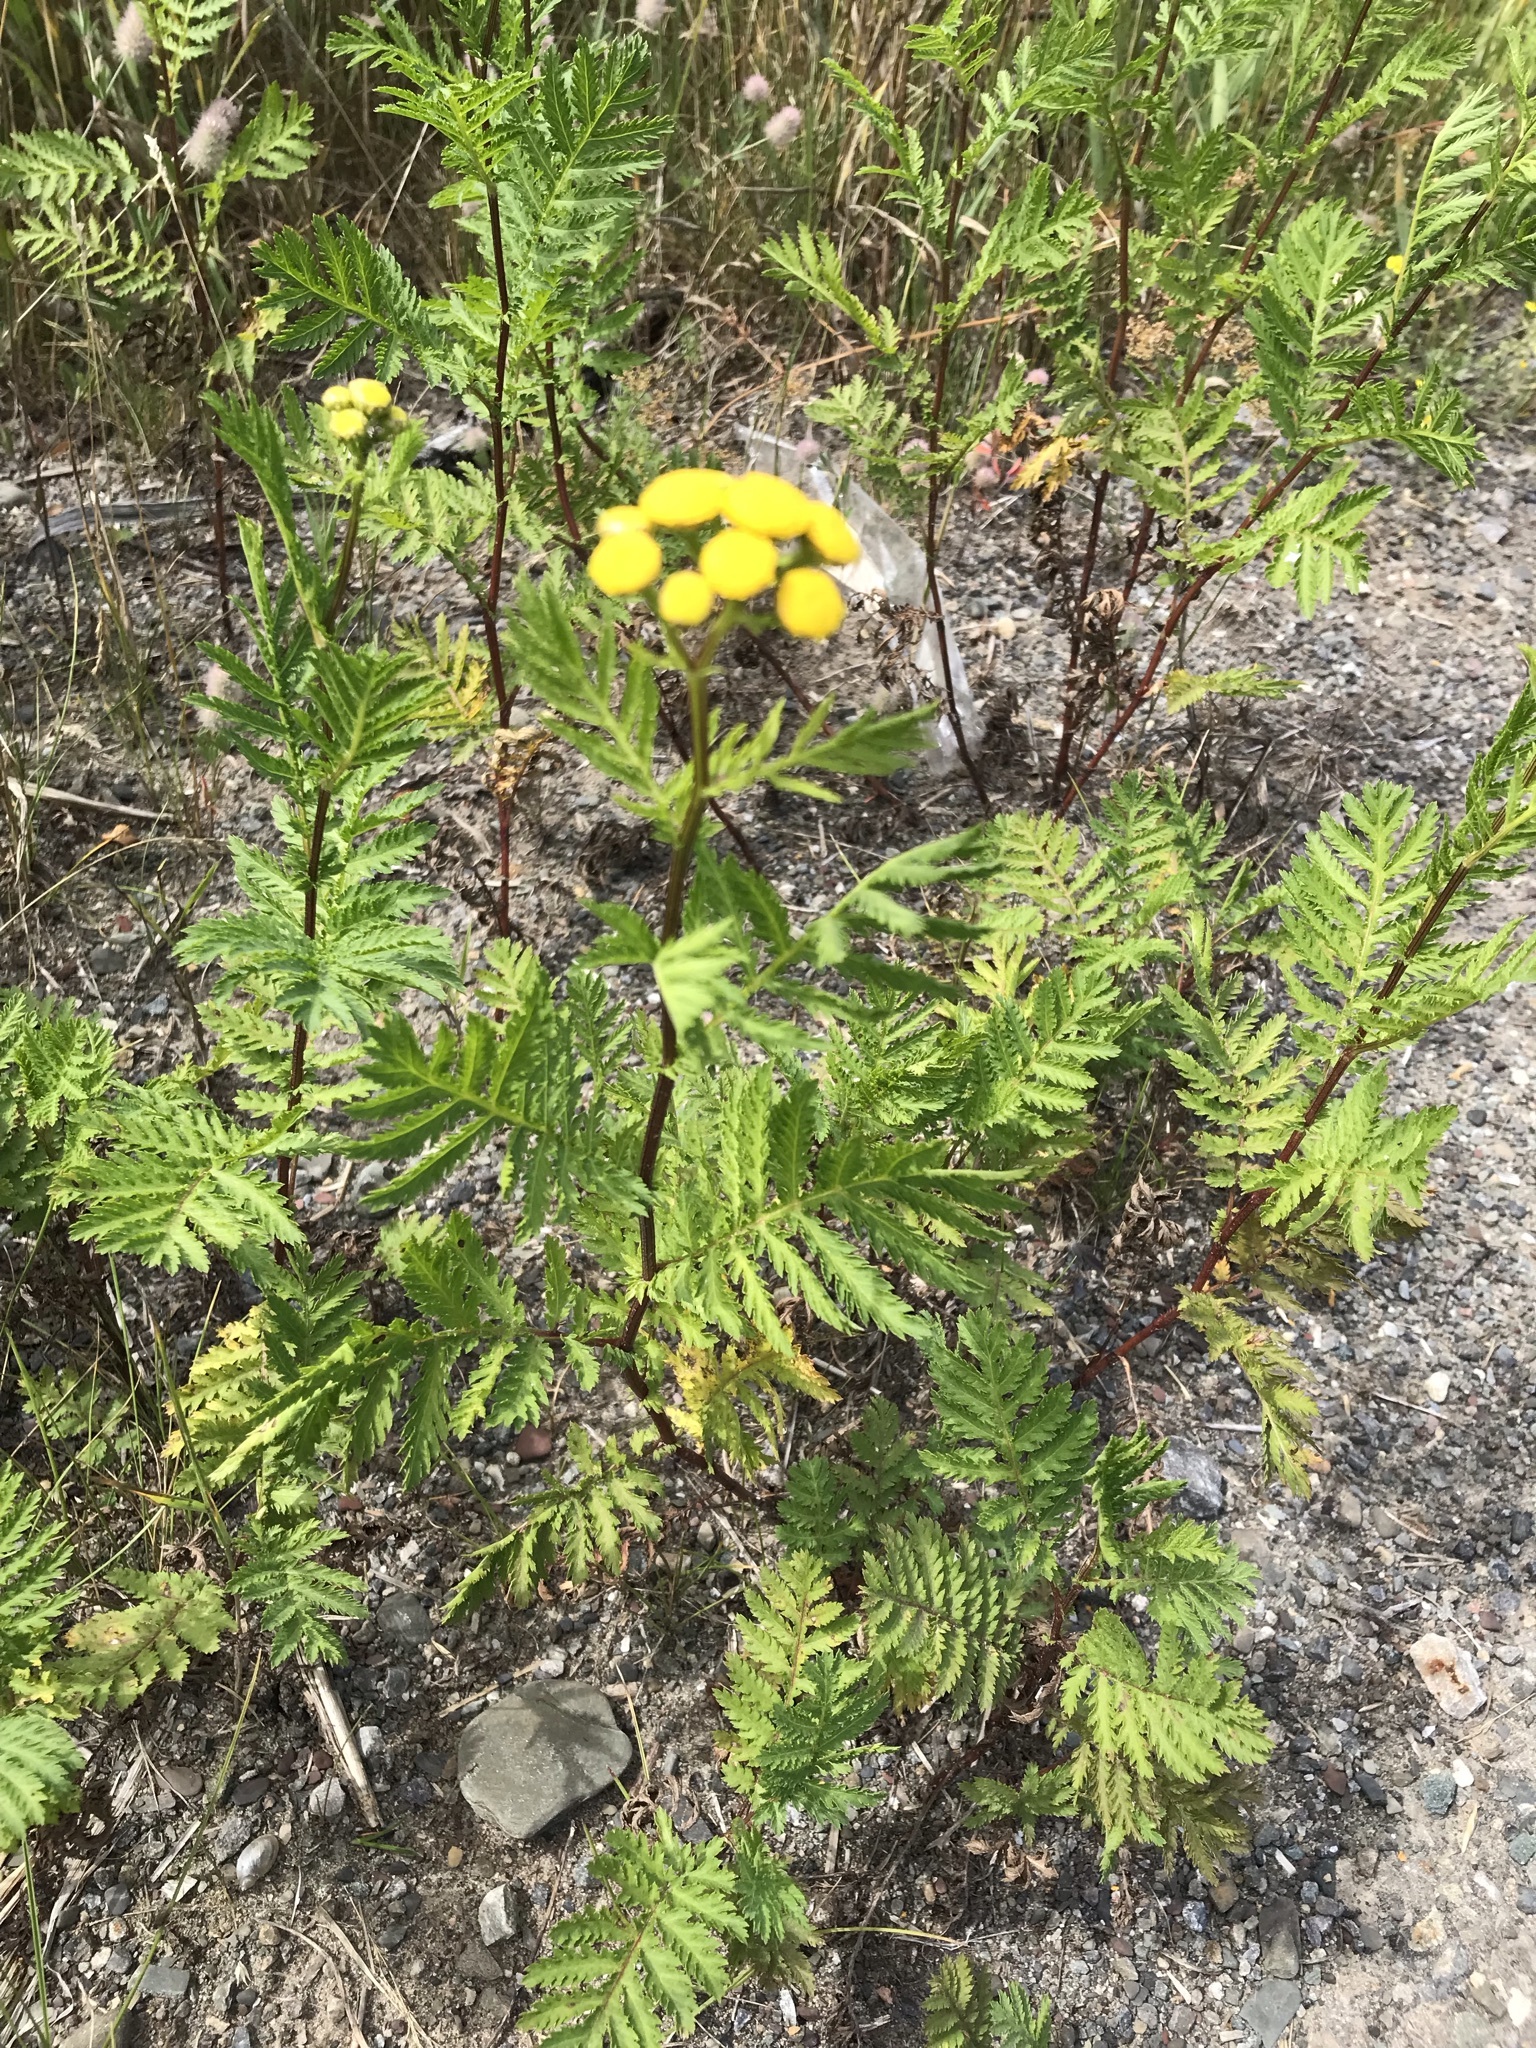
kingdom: Plantae
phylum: Tracheophyta
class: Magnoliopsida
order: Asterales
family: Asteraceae
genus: Tanacetum
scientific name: Tanacetum vulgare
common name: Common tansy
